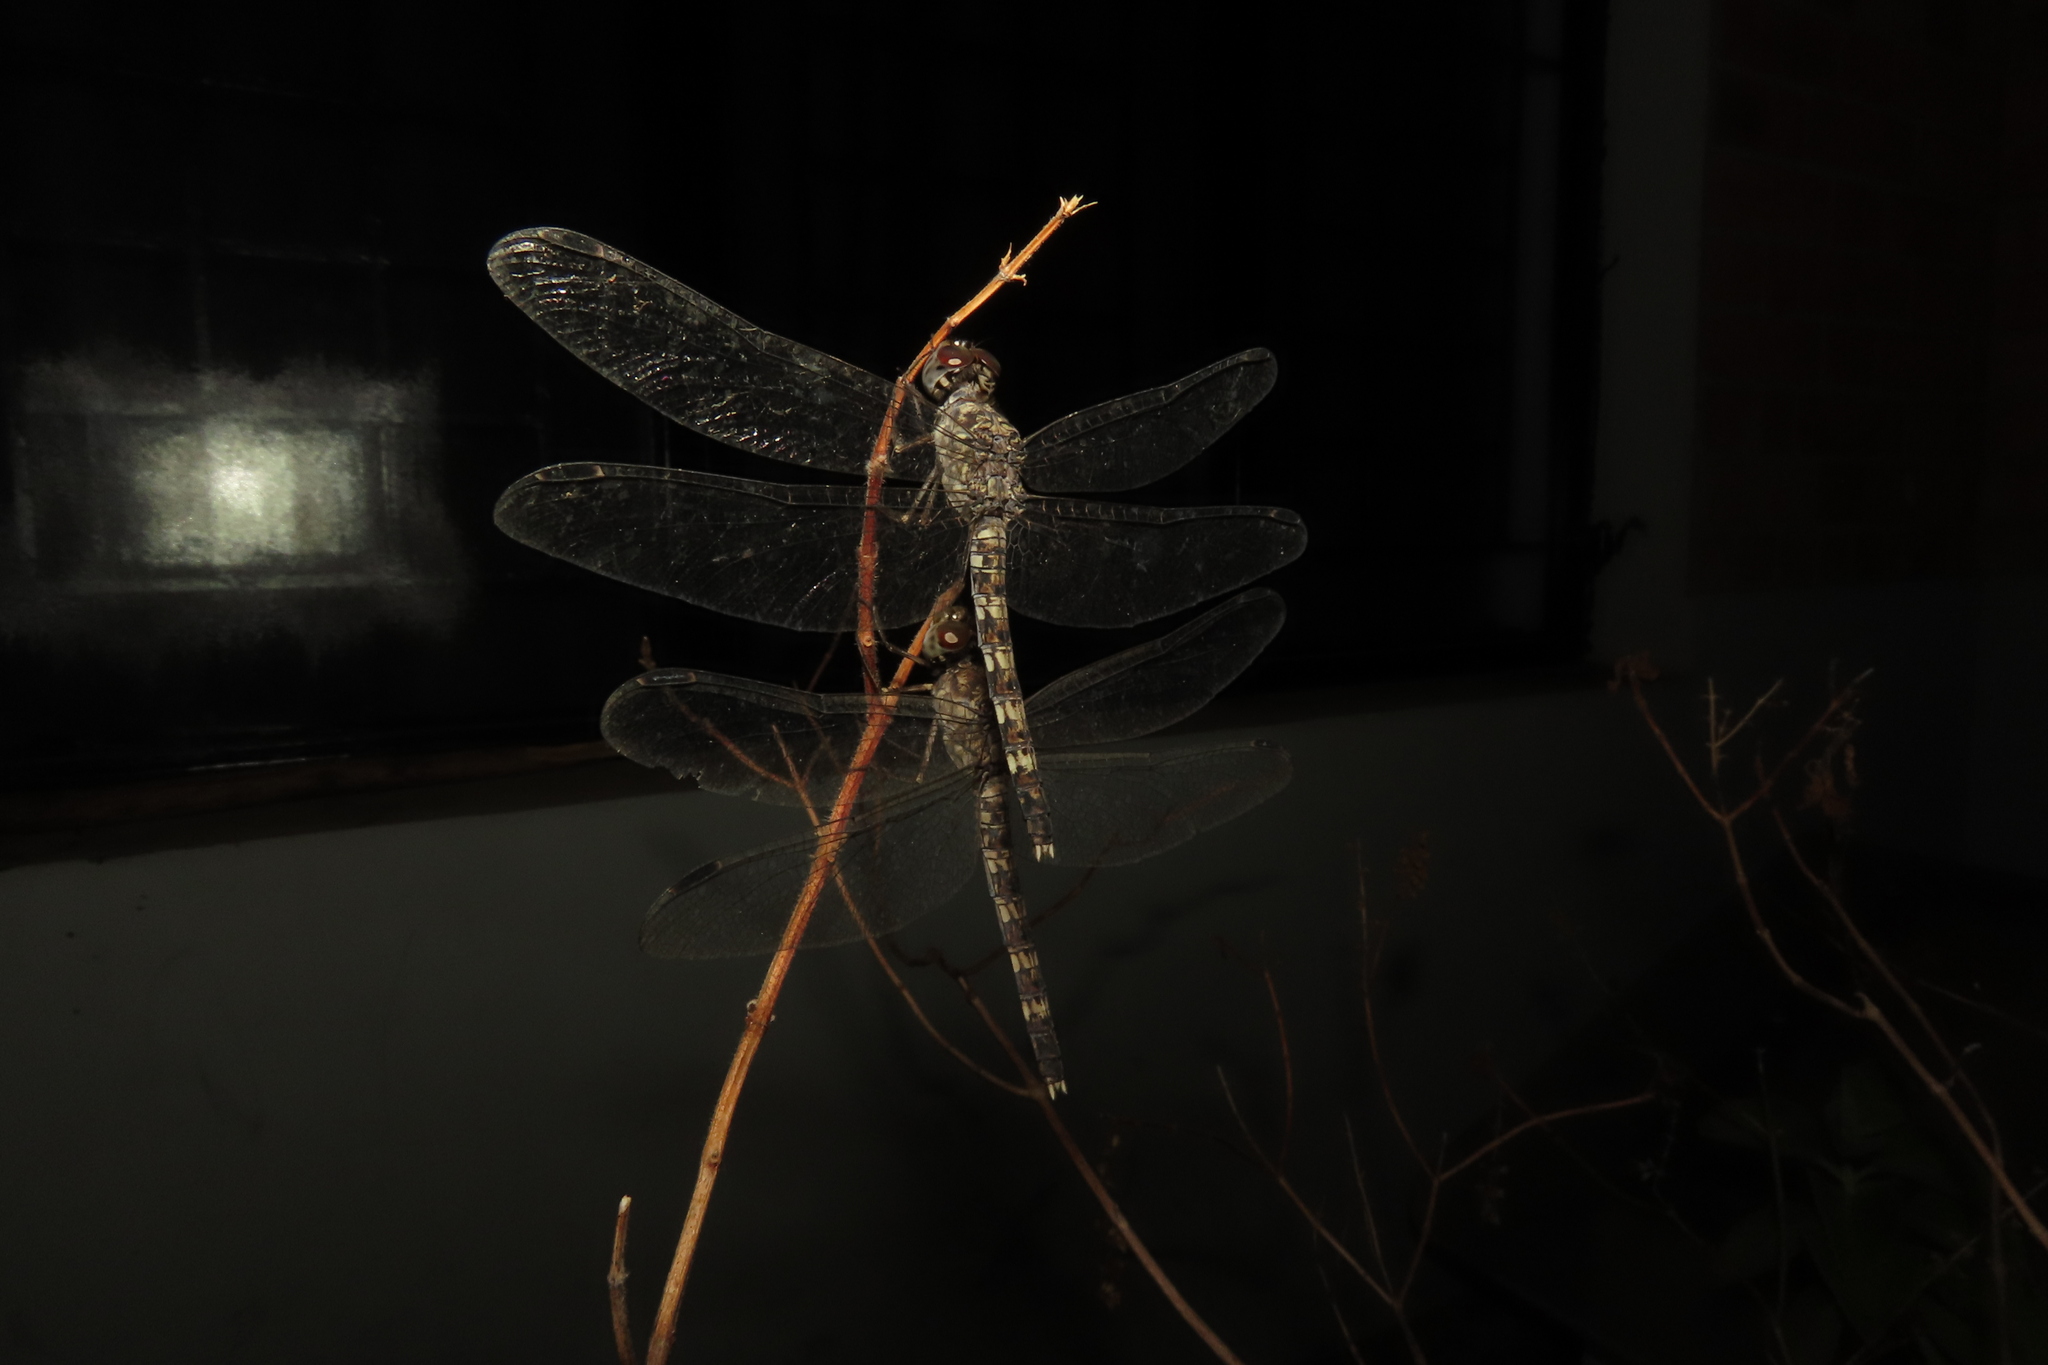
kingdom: Animalia
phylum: Arthropoda
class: Insecta
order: Odonata
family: Libellulidae
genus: Bradinopyga
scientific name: Bradinopyga geminata
